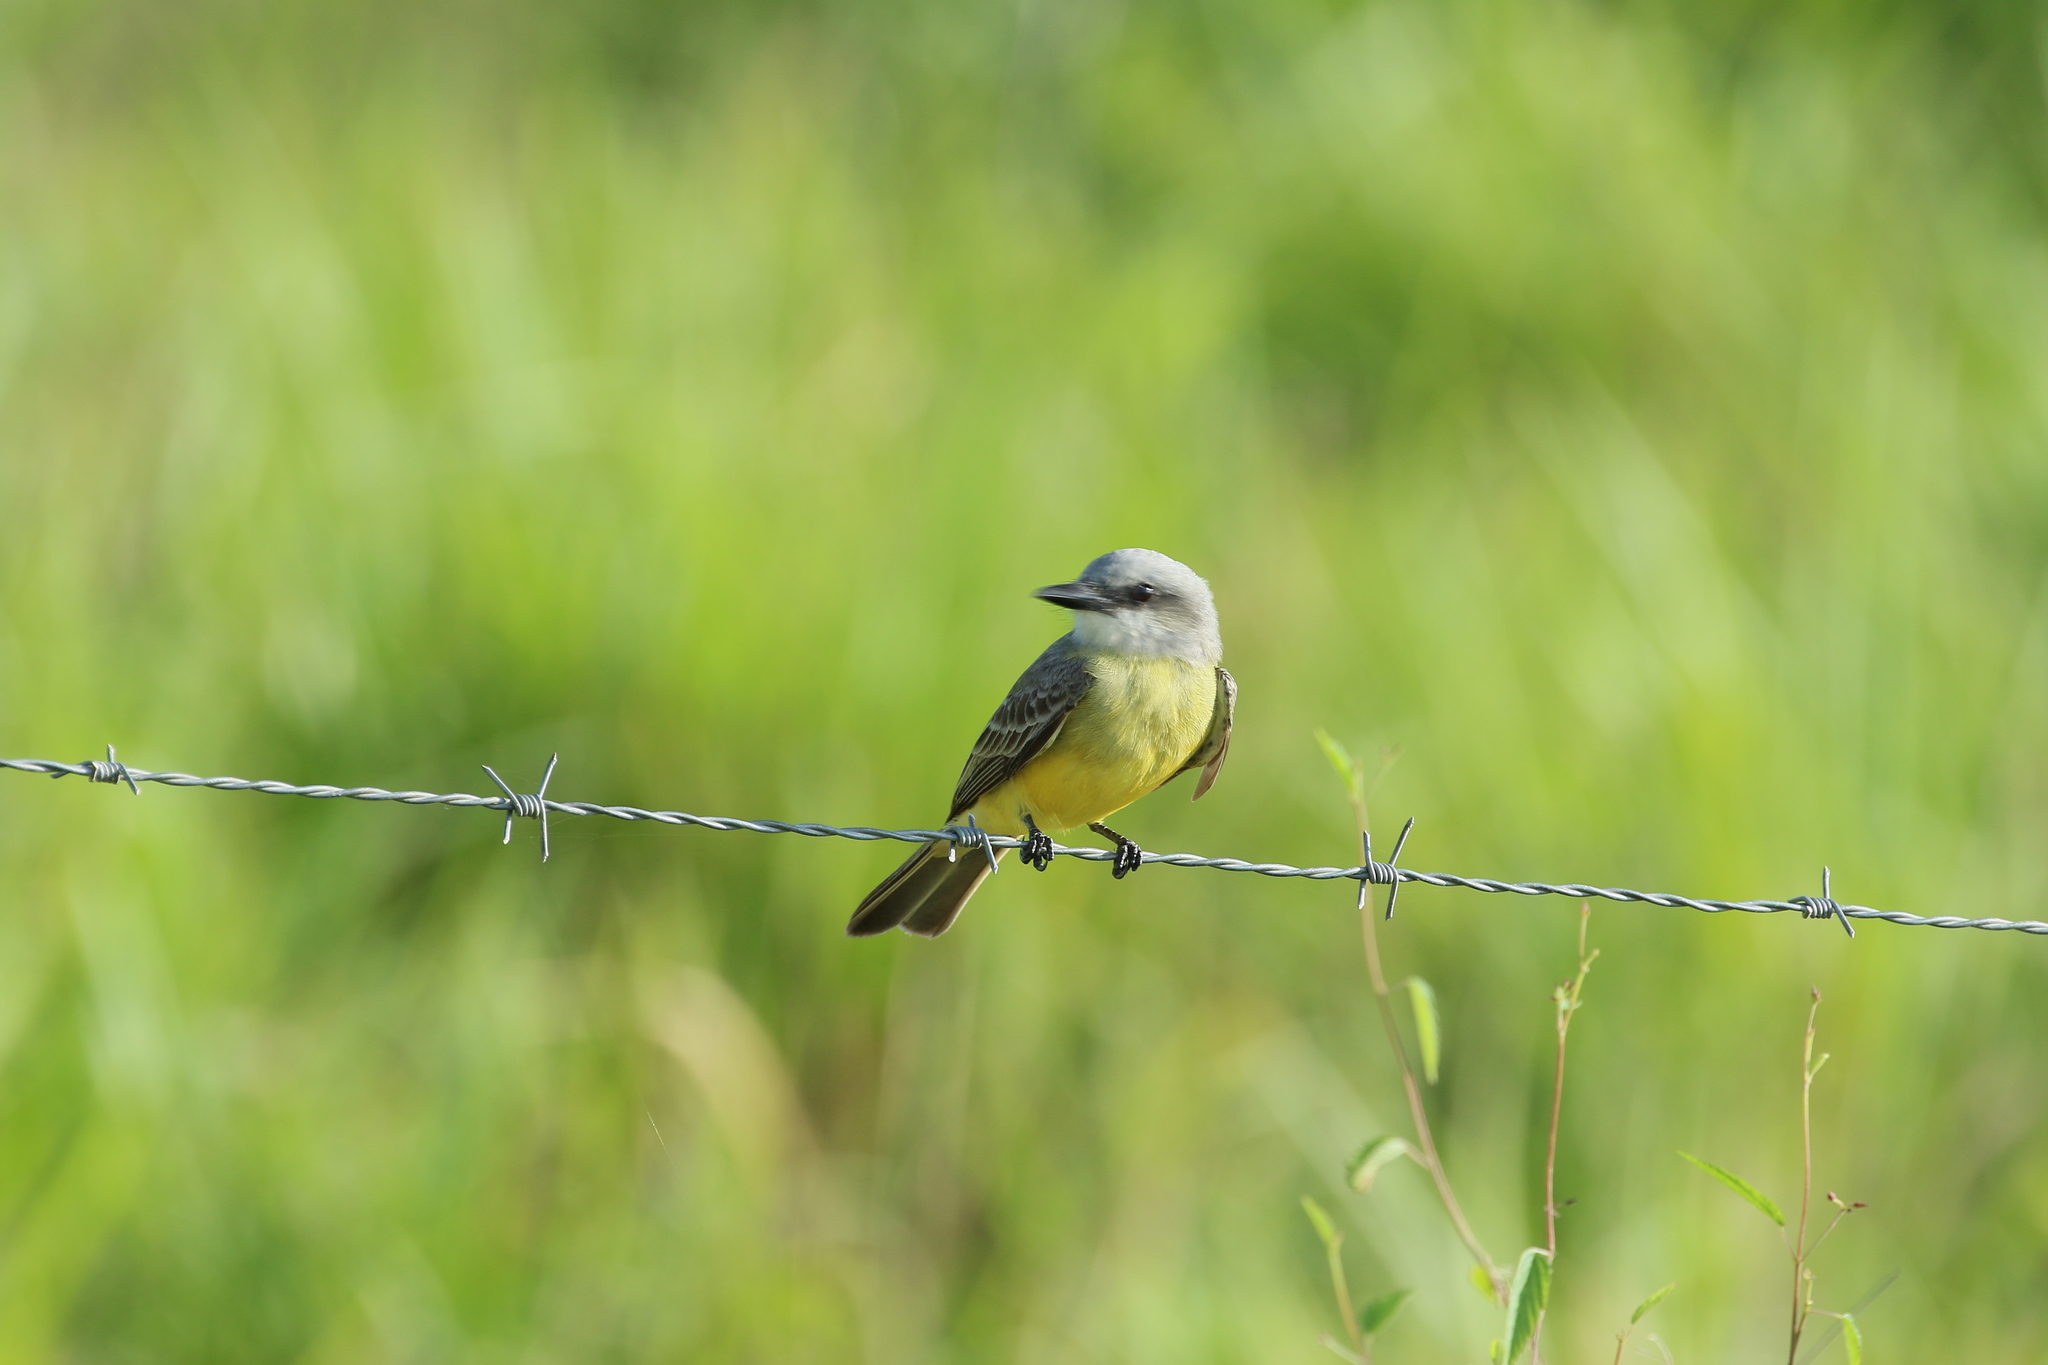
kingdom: Animalia
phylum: Chordata
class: Aves
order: Passeriformes
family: Tyrannidae
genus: Tyrannus
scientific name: Tyrannus melancholicus
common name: Tropical kingbird
